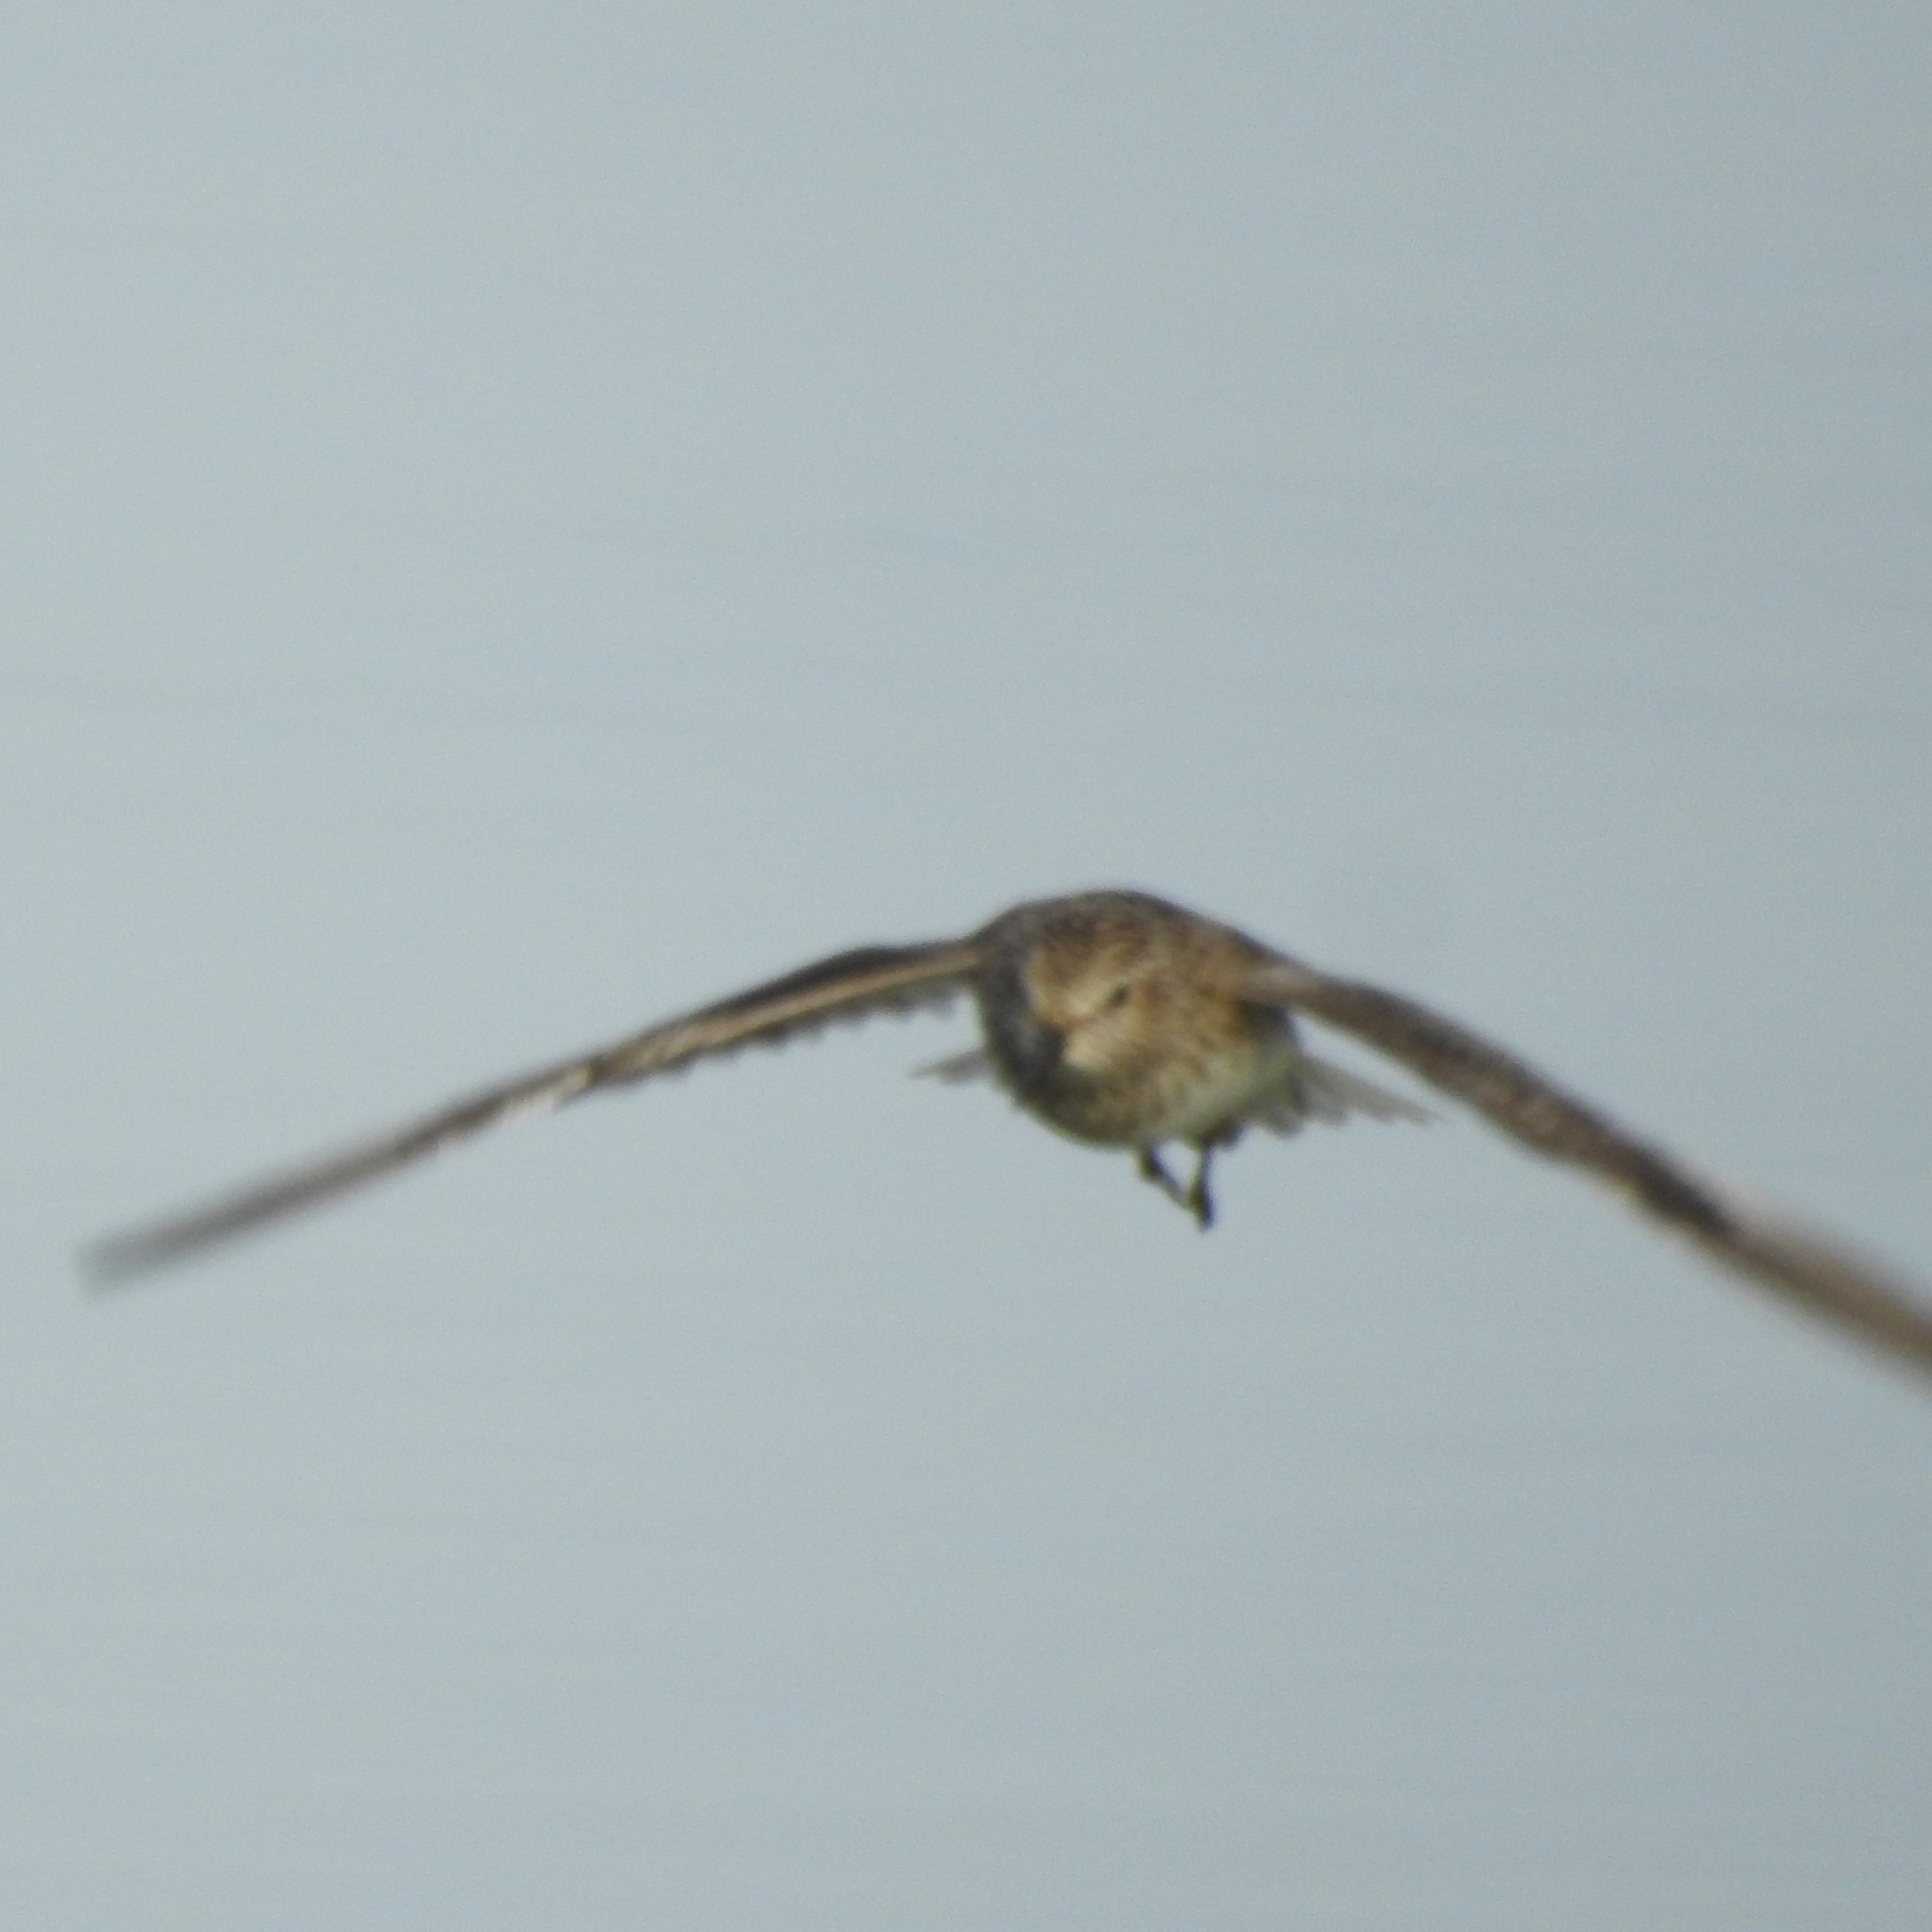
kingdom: Animalia
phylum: Chordata
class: Aves
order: Charadriiformes
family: Scolopacidae
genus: Calidris
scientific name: Calidris minutilla
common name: Least sandpiper
